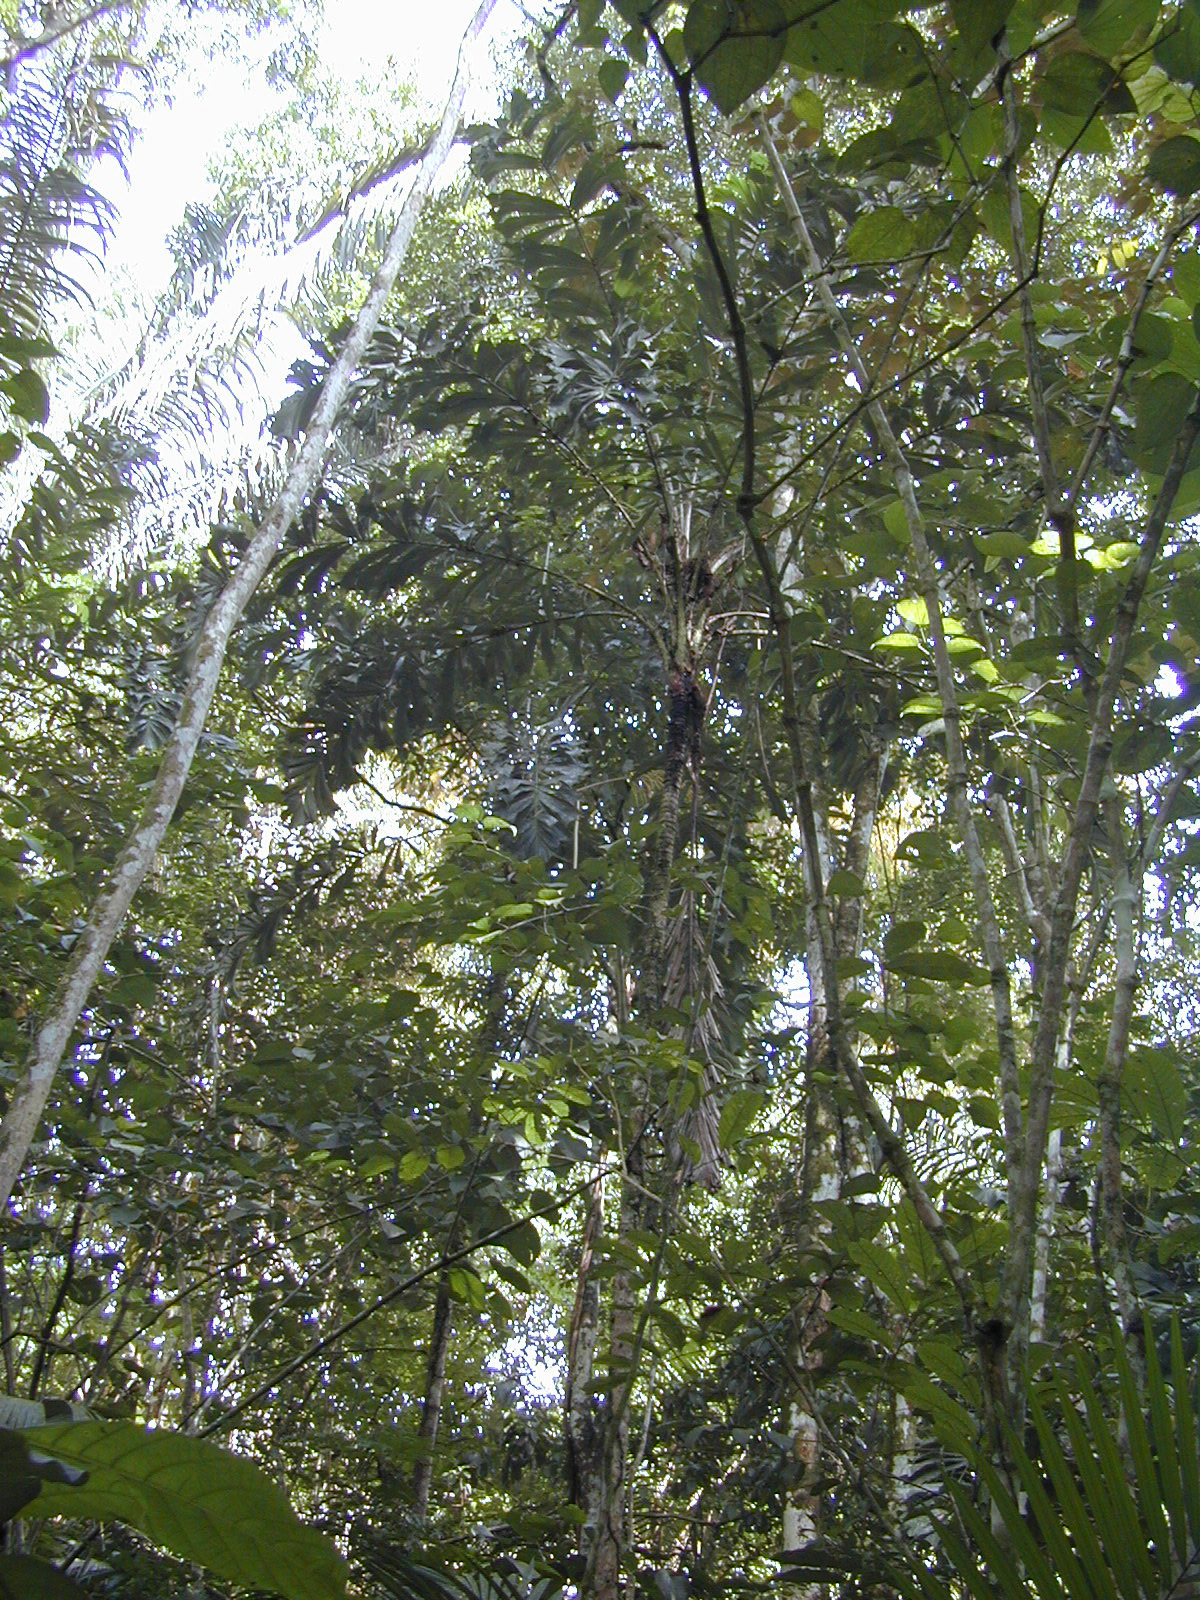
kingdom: Plantae
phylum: Tracheophyta
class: Liliopsida
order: Arecales
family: Arecaceae
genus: Aiphanes
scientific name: Aiphanes horrida
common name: Ruffle palm
